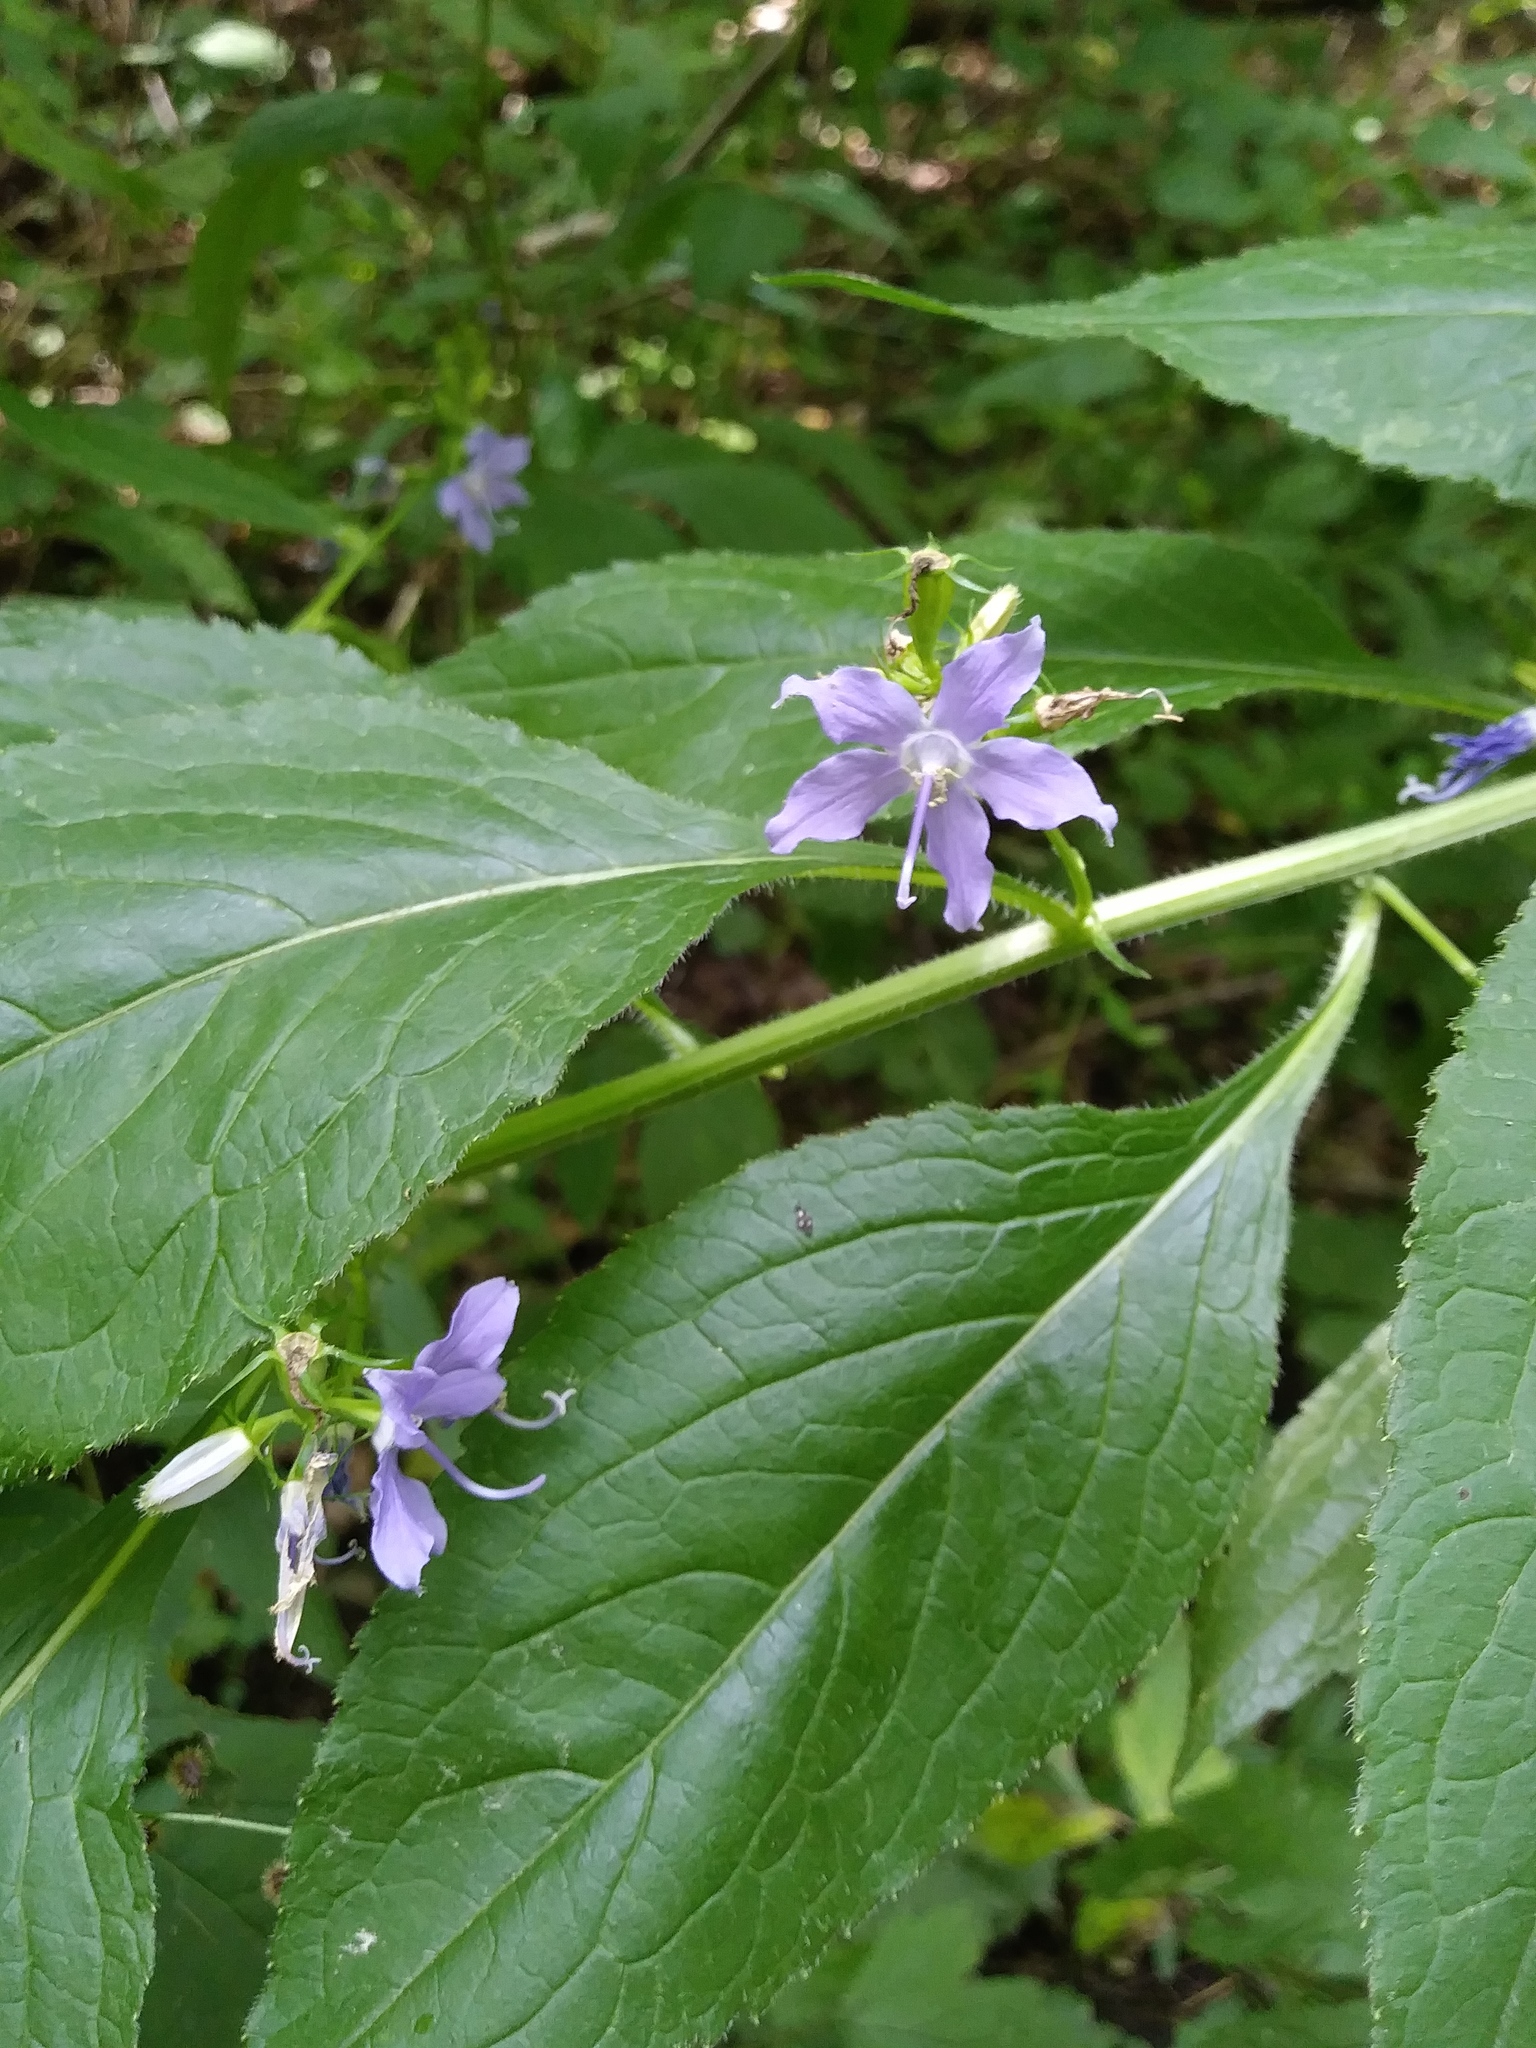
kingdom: Plantae
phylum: Tracheophyta
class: Magnoliopsida
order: Asterales
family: Campanulaceae
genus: Campanulastrum
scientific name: Campanulastrum americanum
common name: American bellflower
